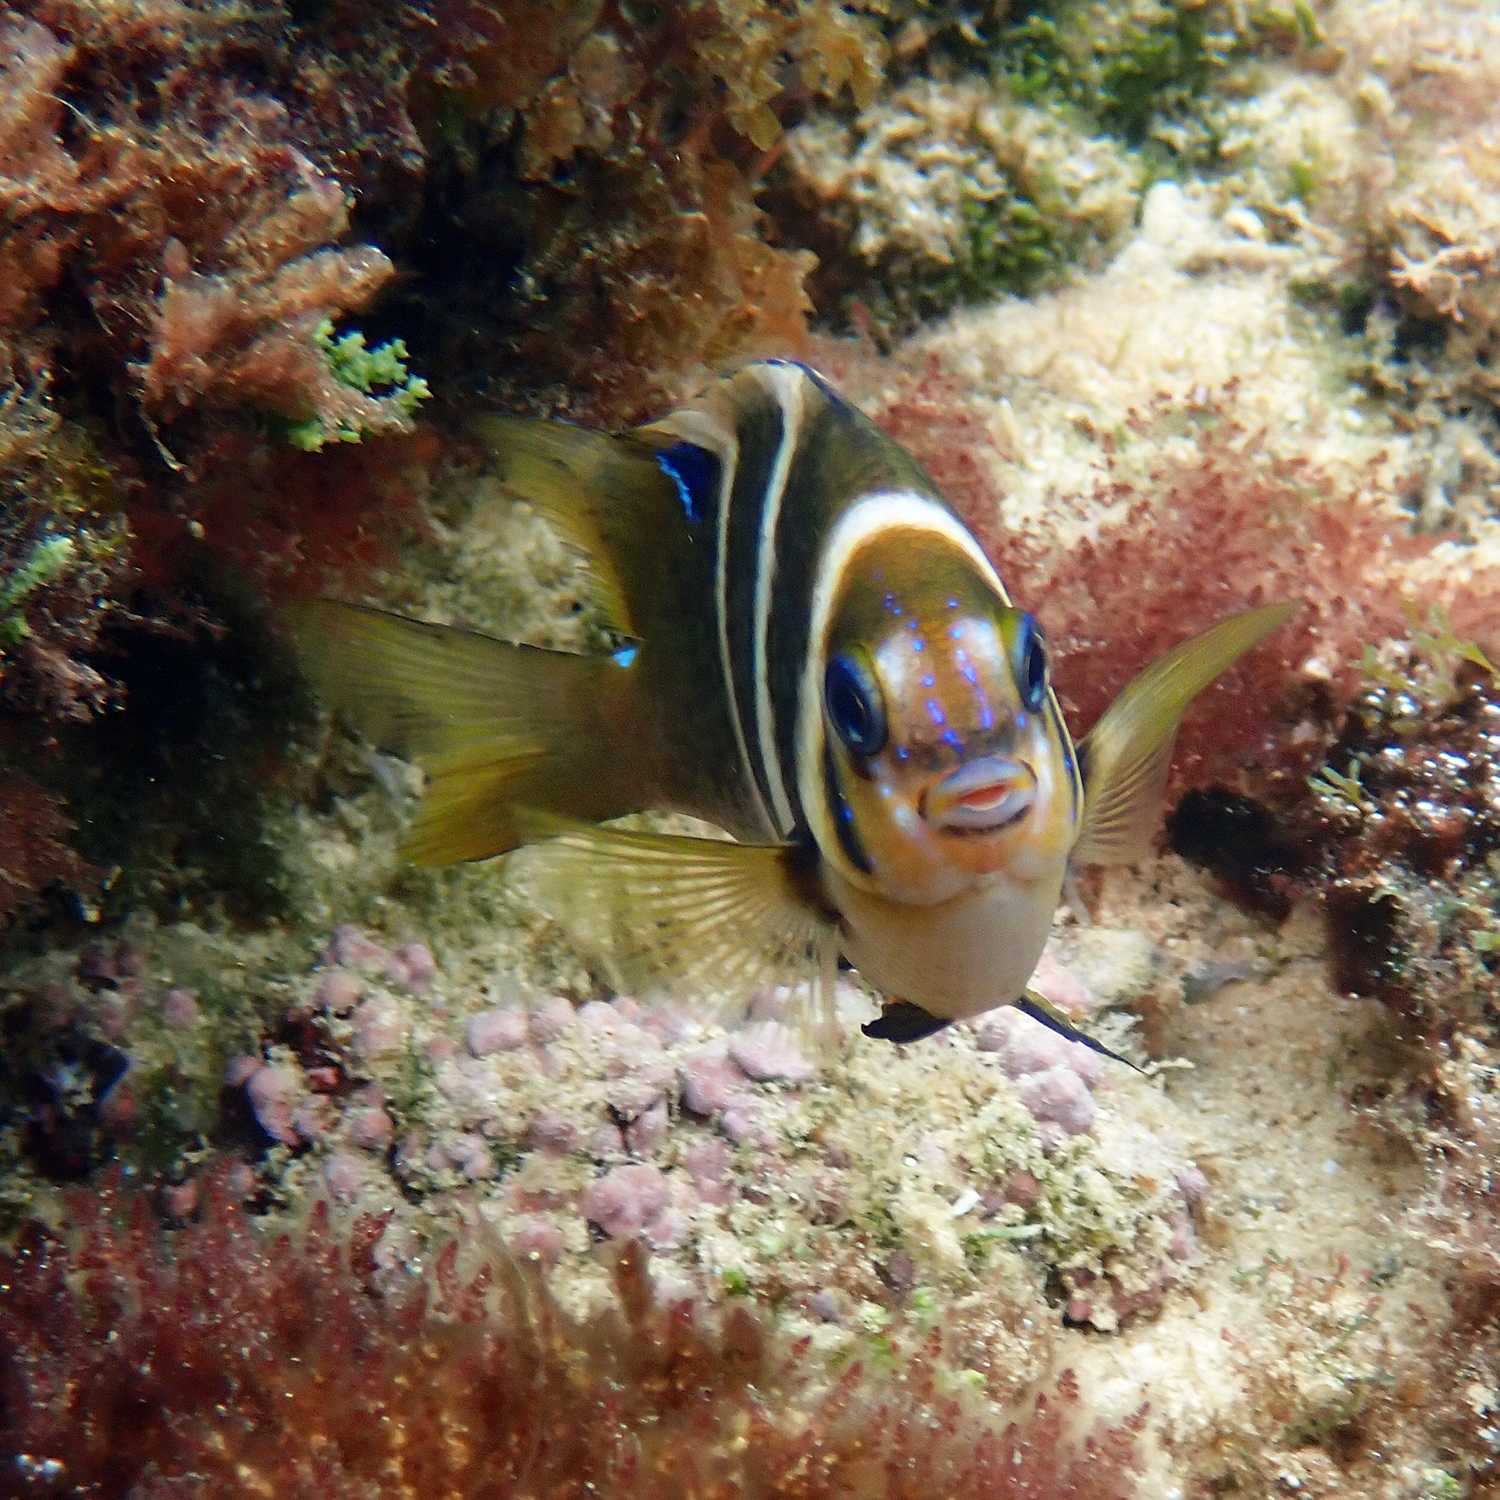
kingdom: Animalia
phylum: Chordata
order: Perciformes
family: Pomacentridae
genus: Parma
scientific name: Parma polylepis
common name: Banded parma
